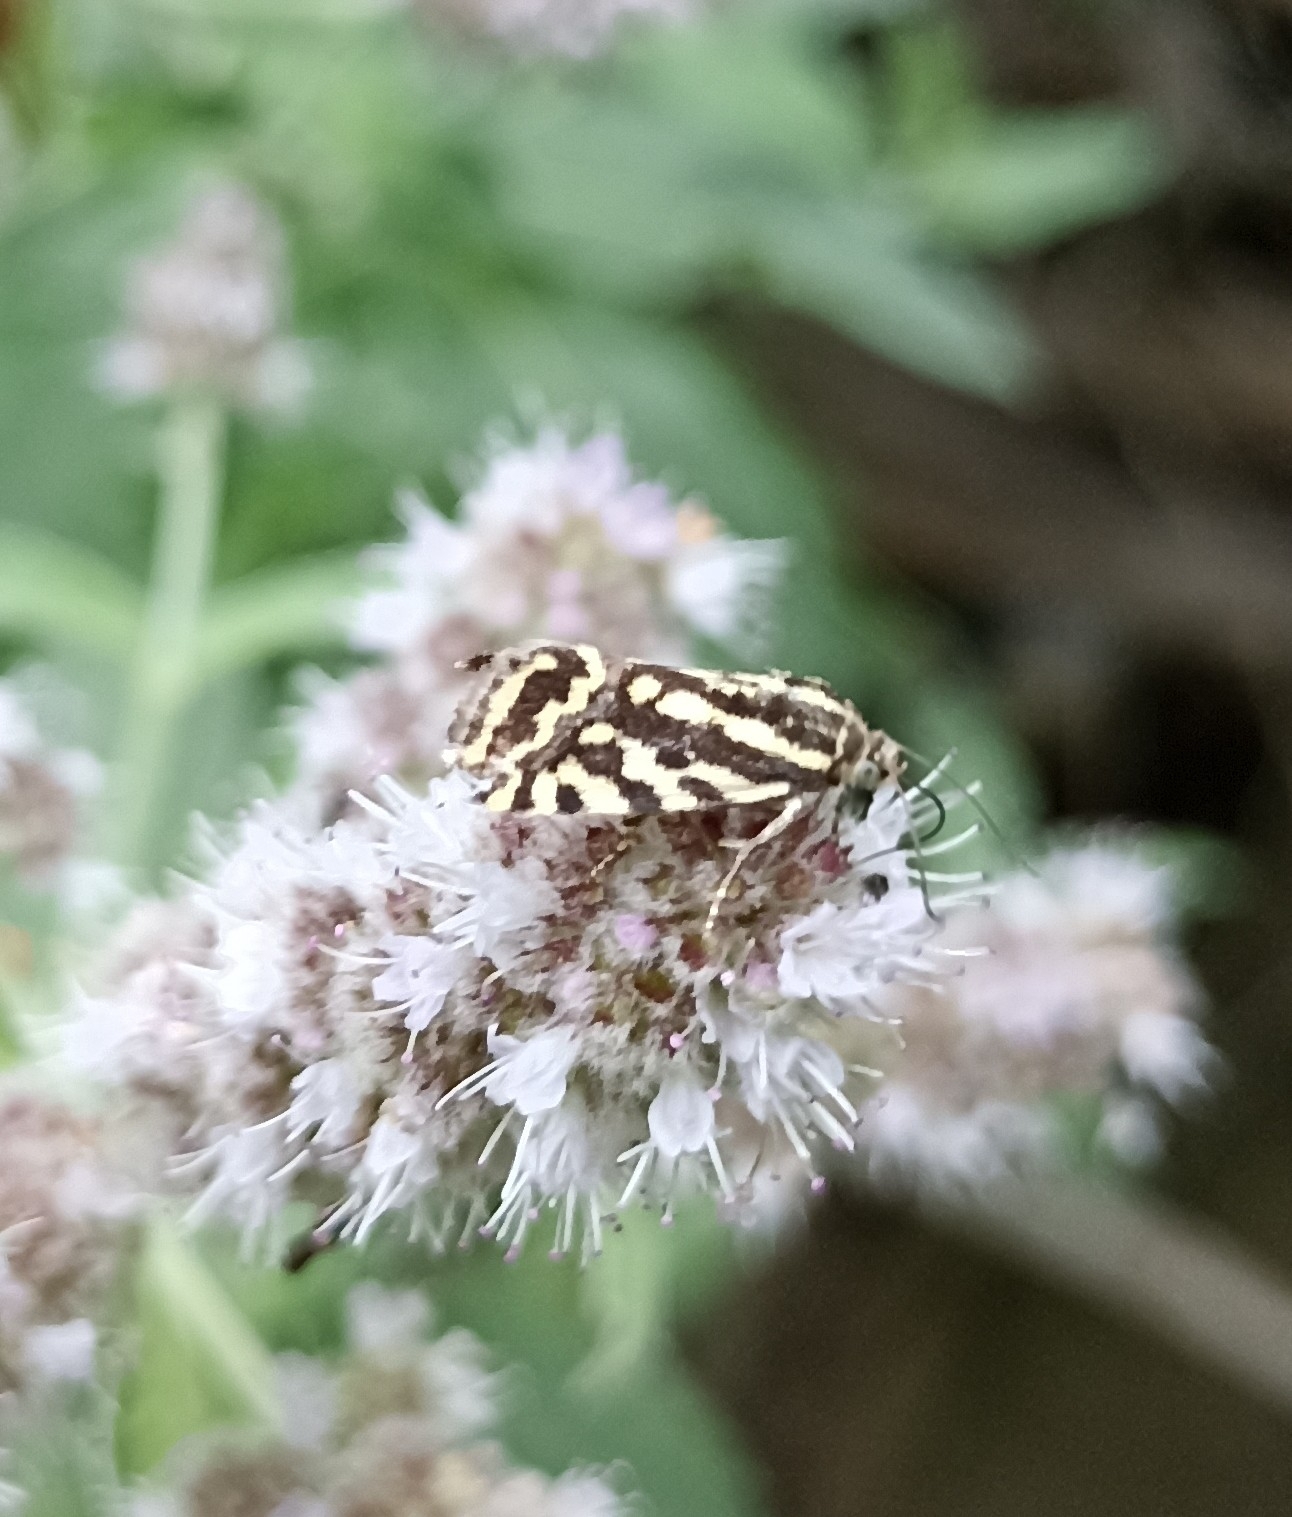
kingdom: Animalia
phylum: Arthropoda
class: Insecta
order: Lepidoptera
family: Noctuidae
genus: Acontia
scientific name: Acontia trabealis
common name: Spotted sulphur
